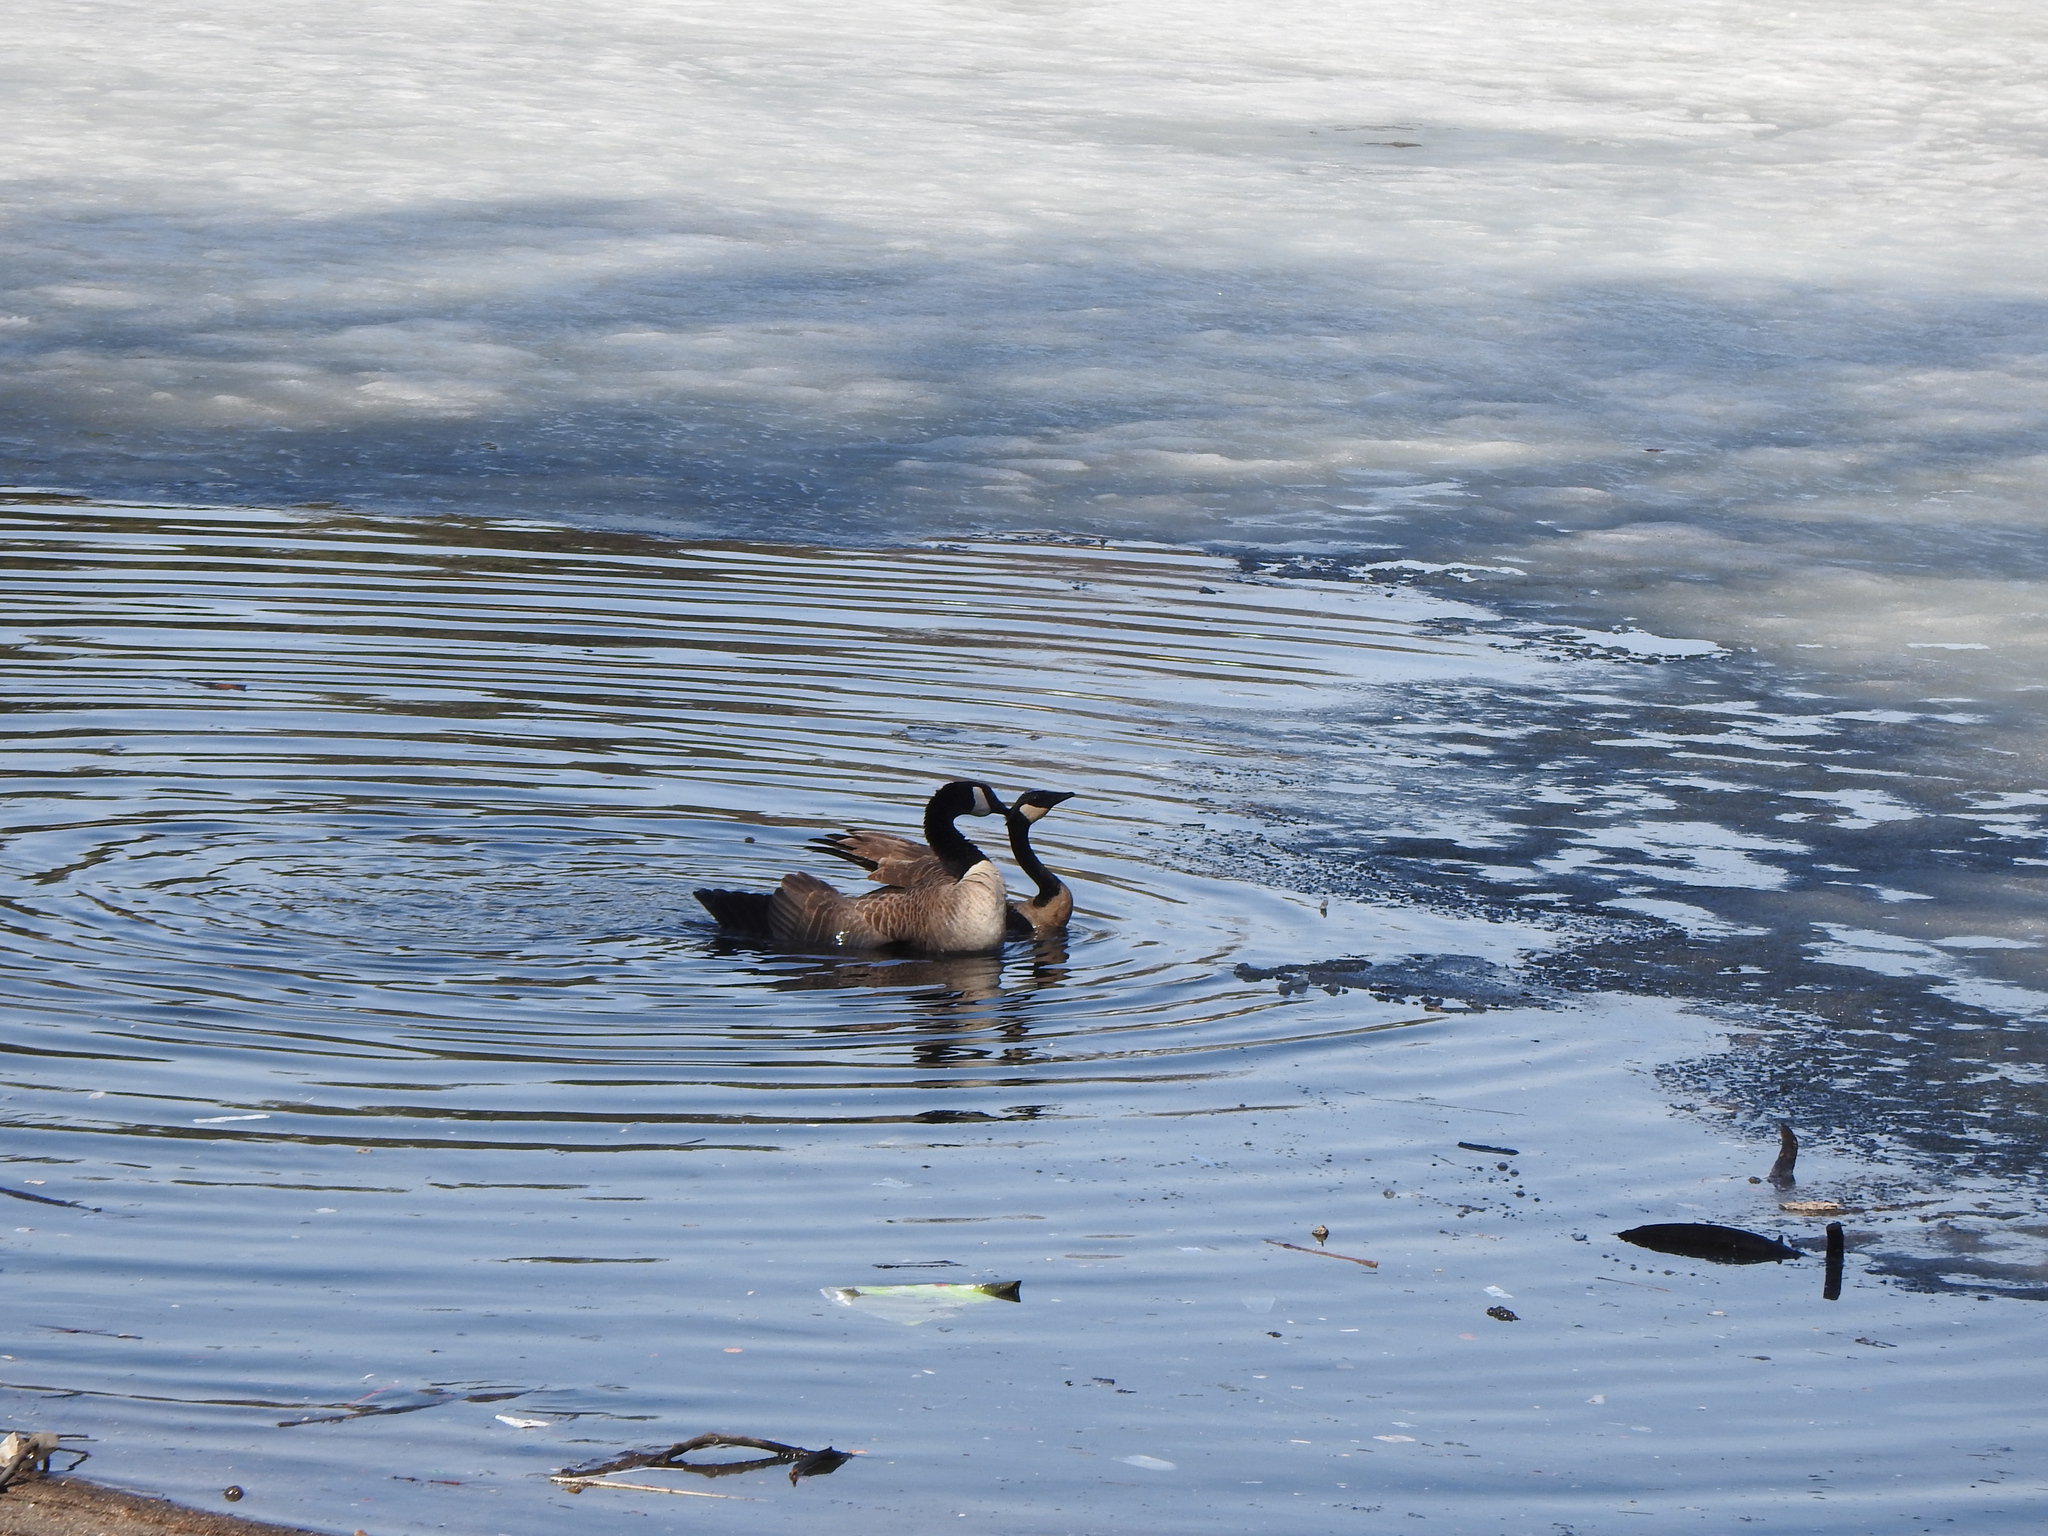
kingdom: Animalia
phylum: Chordata
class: Aves
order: Anseriformes
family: Anatidae
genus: Branta
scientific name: Branta canadensis
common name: Canada goose
